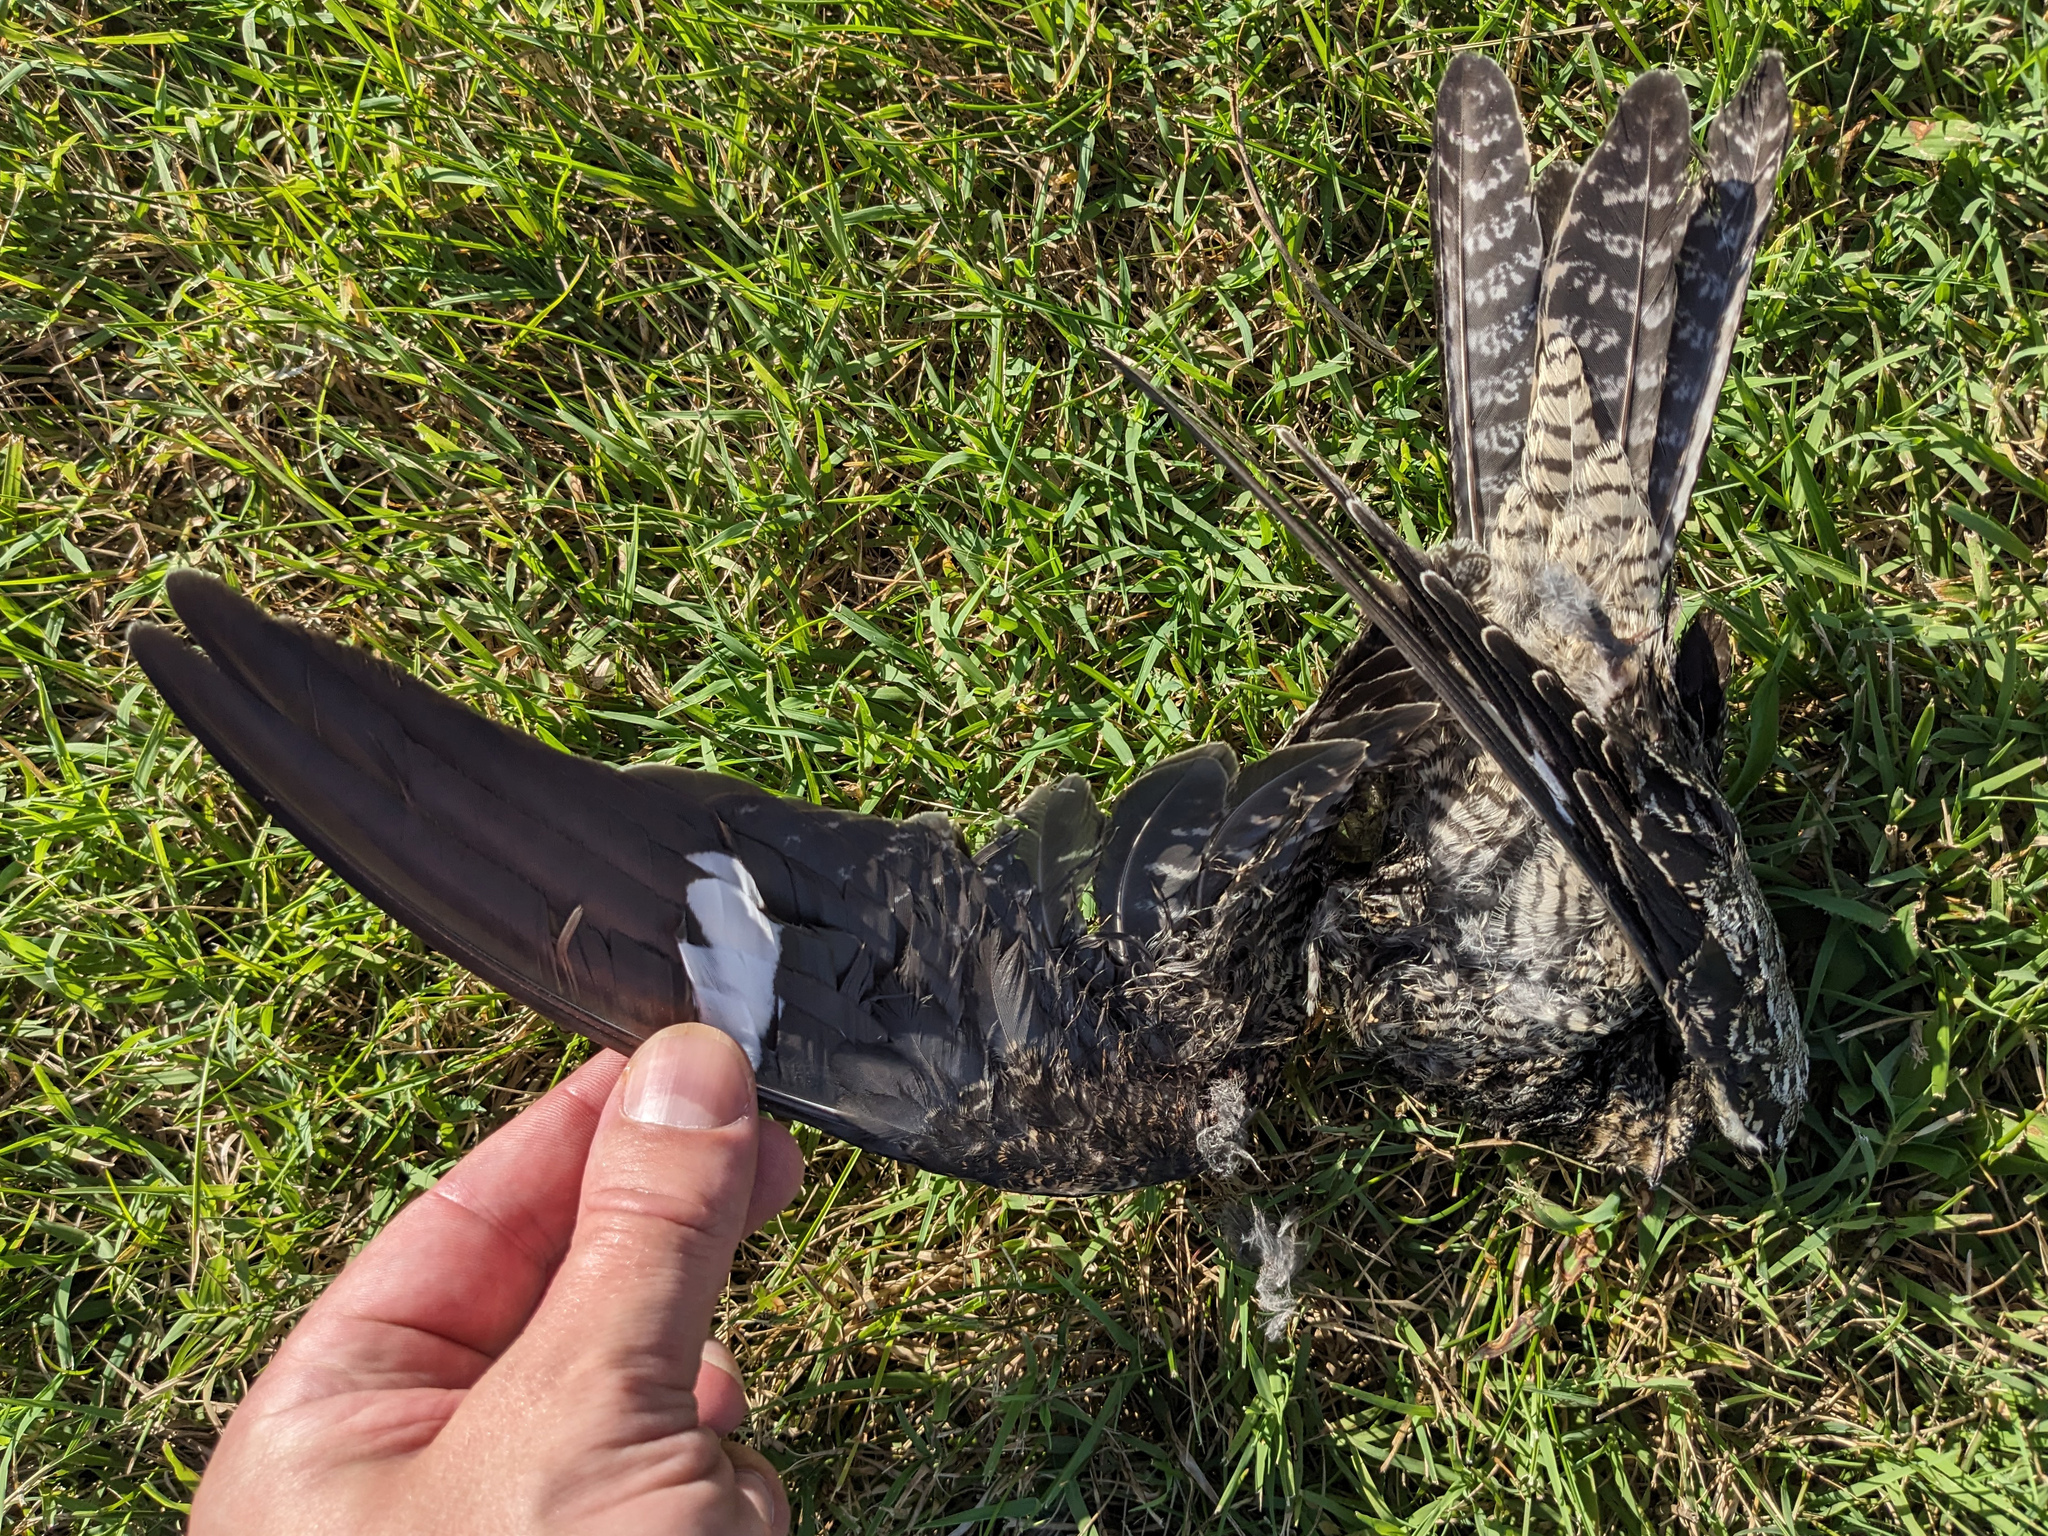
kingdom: Animalia
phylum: Chordata
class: Aves
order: Caprimulgiformes
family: Caprimulgidae
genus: Chordeiles
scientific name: Chordeiles minor
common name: Common nighthawk
